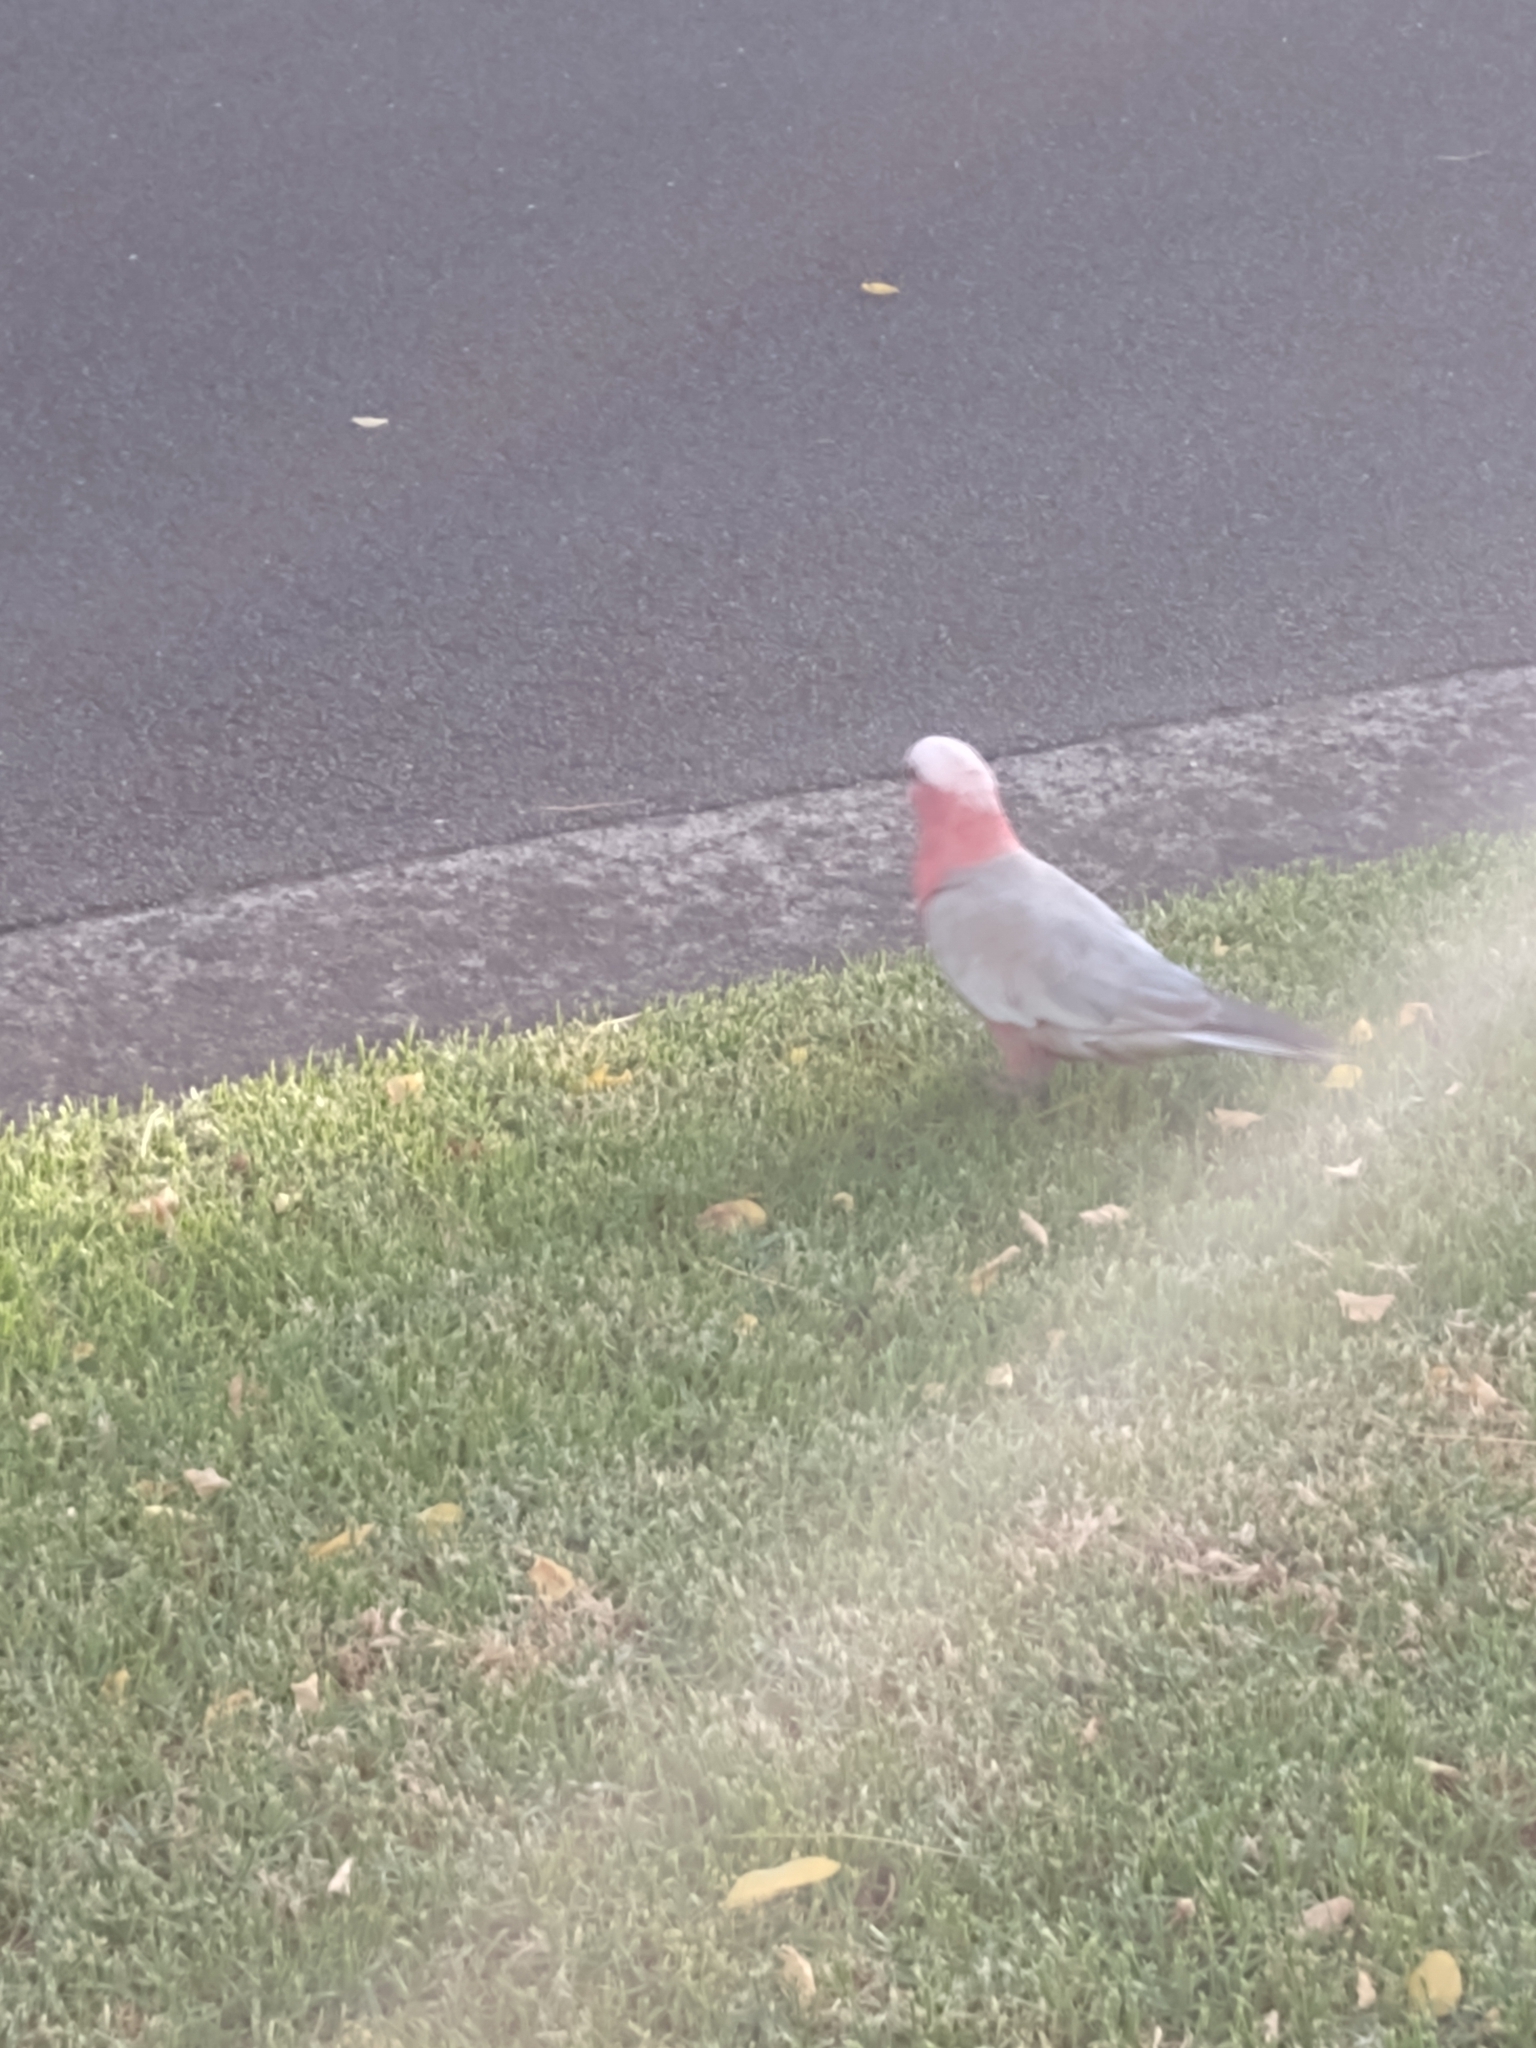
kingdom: Animalia
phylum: Chordata
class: Aves
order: Psittaciformes
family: Psittacidae
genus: Eolophus
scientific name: Eolophus roseicapilla
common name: Galah
